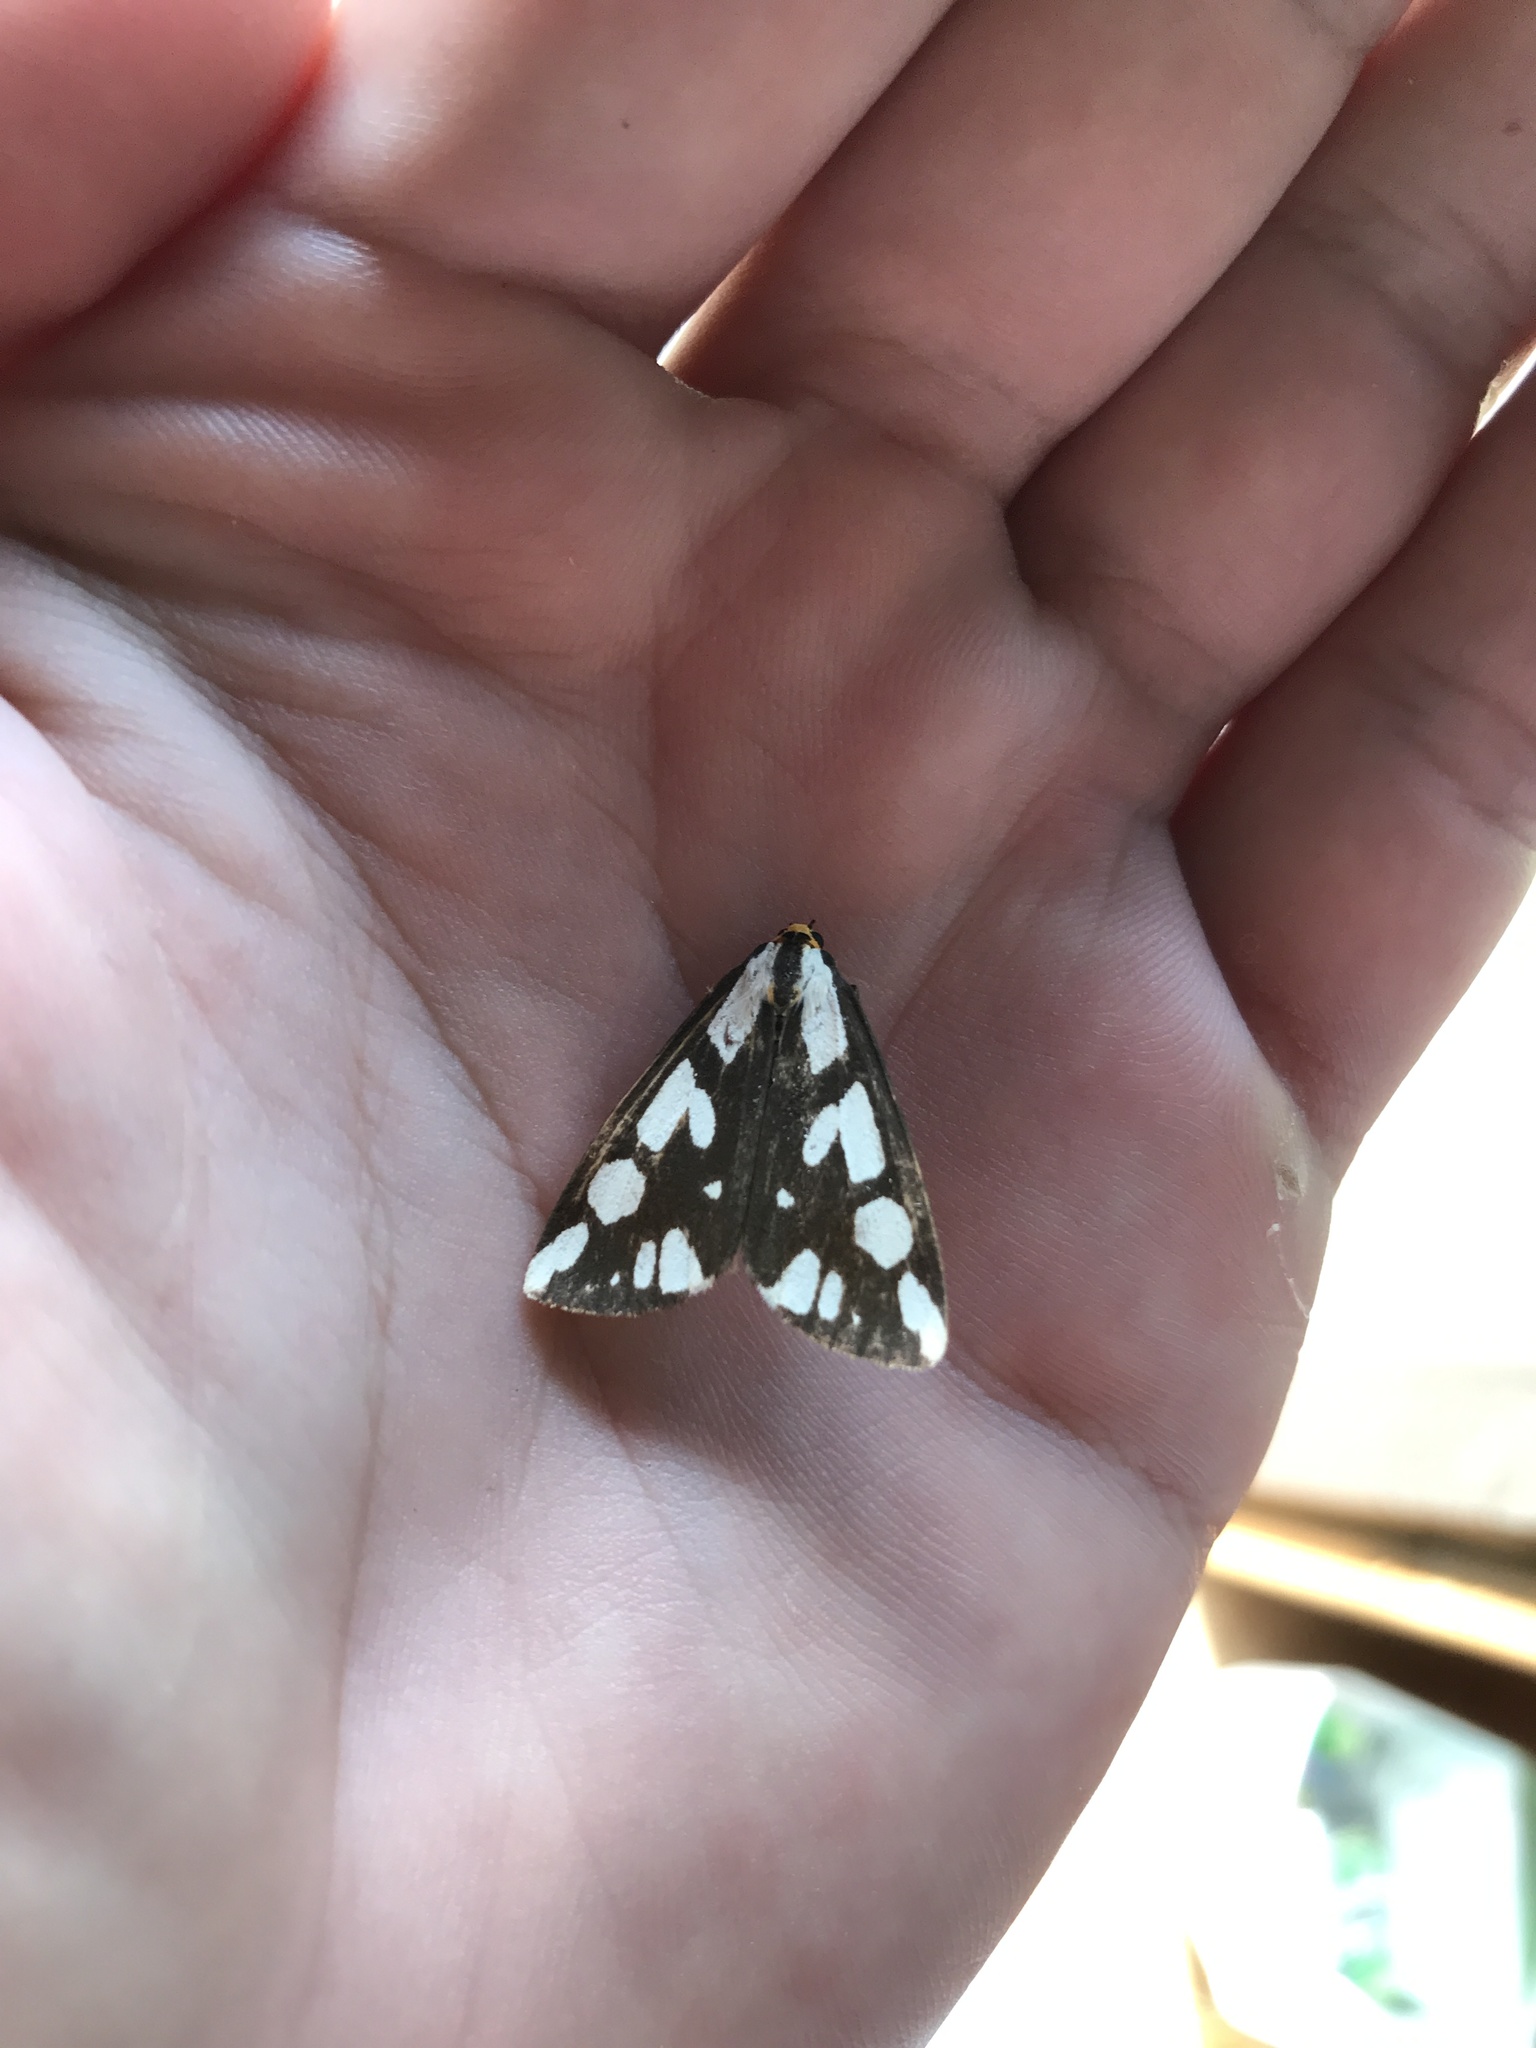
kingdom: Animalia
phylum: Arthropoda
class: Insecta
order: Lepidoptera
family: Erebidae
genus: Haploa
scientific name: Haploa confusa
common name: Confused haploa moth
